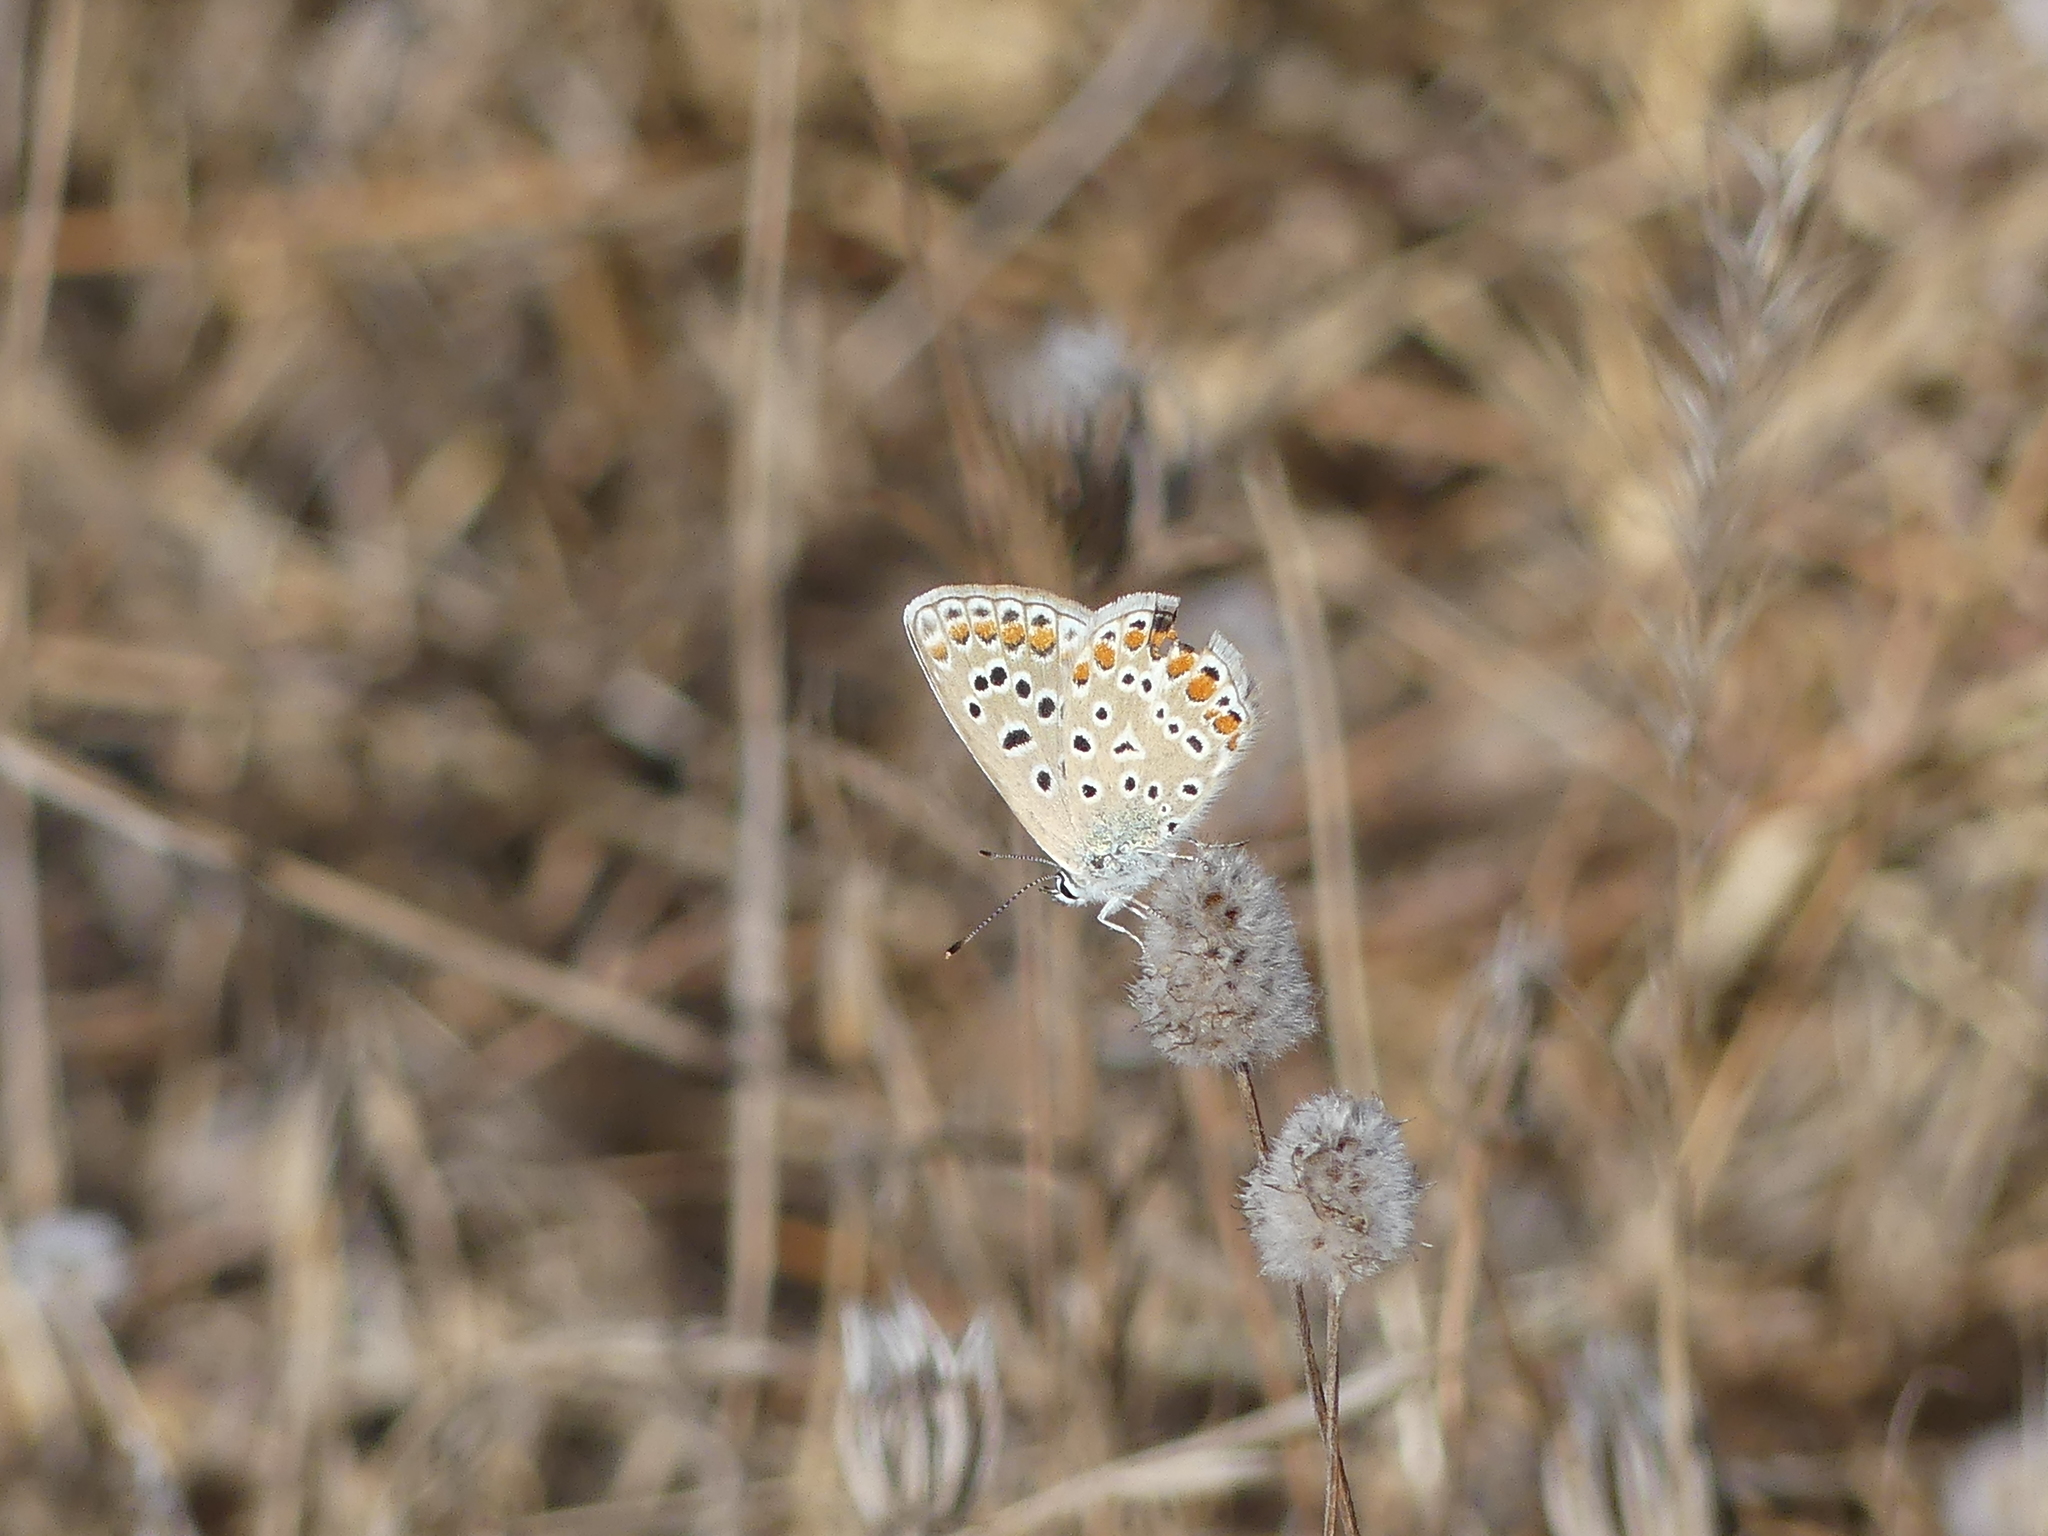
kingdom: Animalia
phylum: Arthropoda
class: Insecta
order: Lepidoptera
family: Lycaenidae
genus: Polyommatus
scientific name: Polyommatus icarus
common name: Common blue
